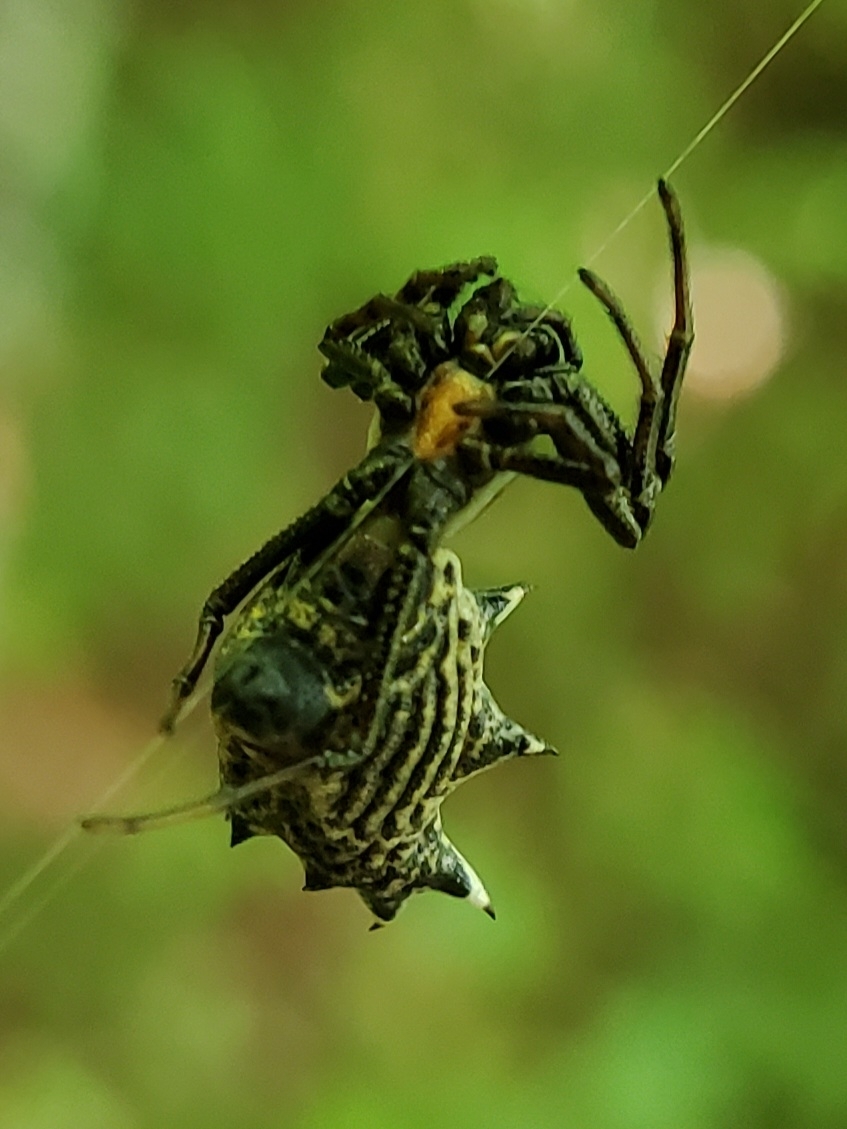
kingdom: Animalia
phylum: Arthropoda
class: Arachnida
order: Araneae
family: Araneidae
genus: Micrathena
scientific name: Micrathena gracilis
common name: Orb weavers
